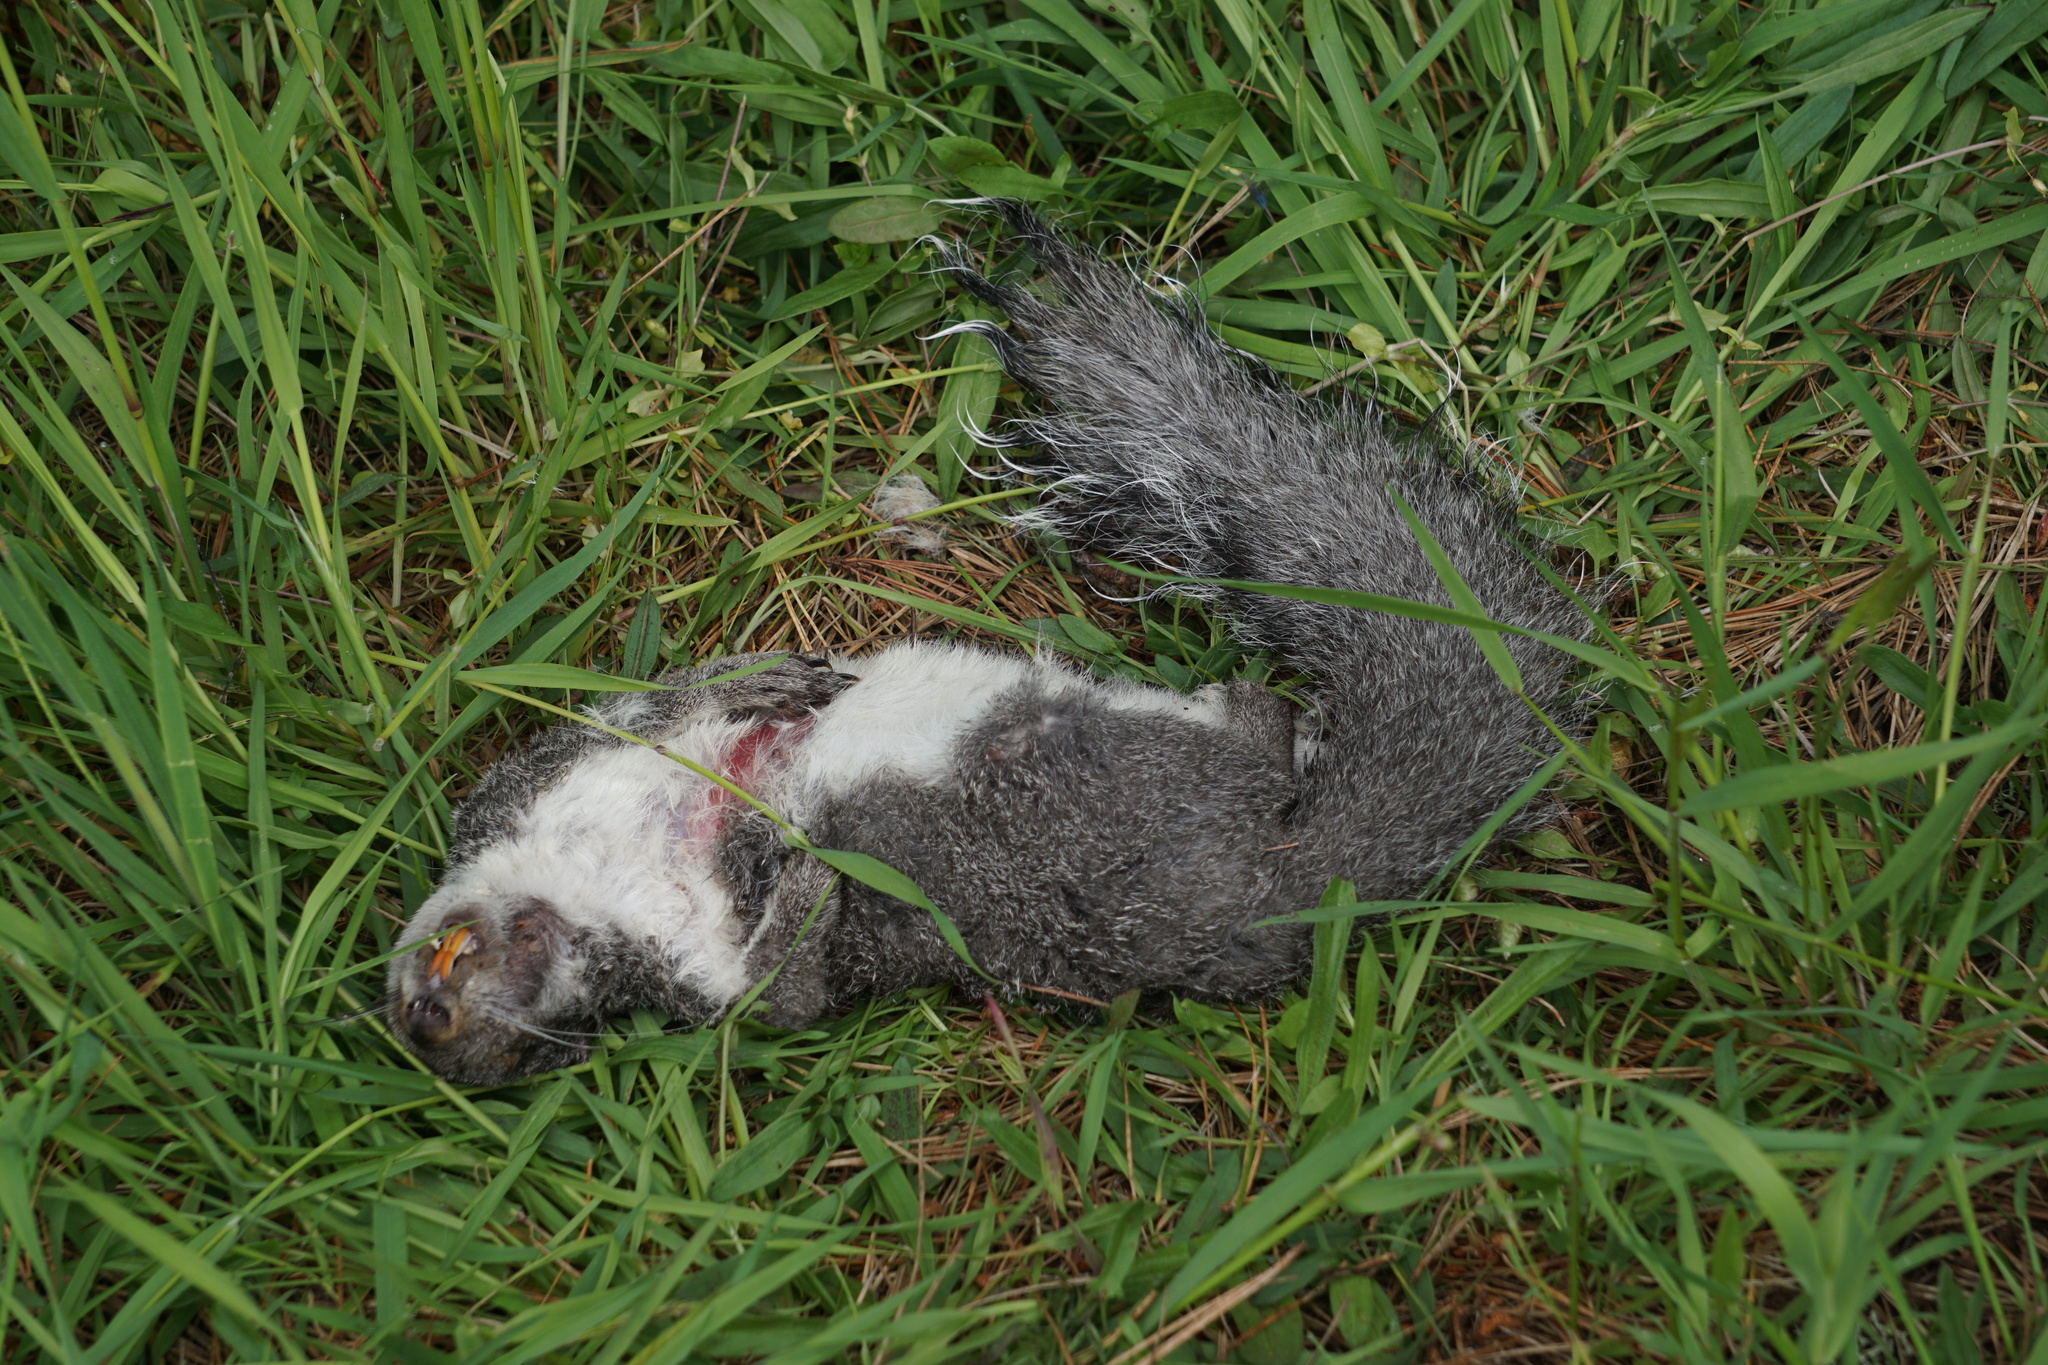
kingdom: Animalia
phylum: Chordata
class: Mammalia
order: Rodentia
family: Sciuridae
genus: Sciurus
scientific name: Sciurus griseus
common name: Western gray squirrel
